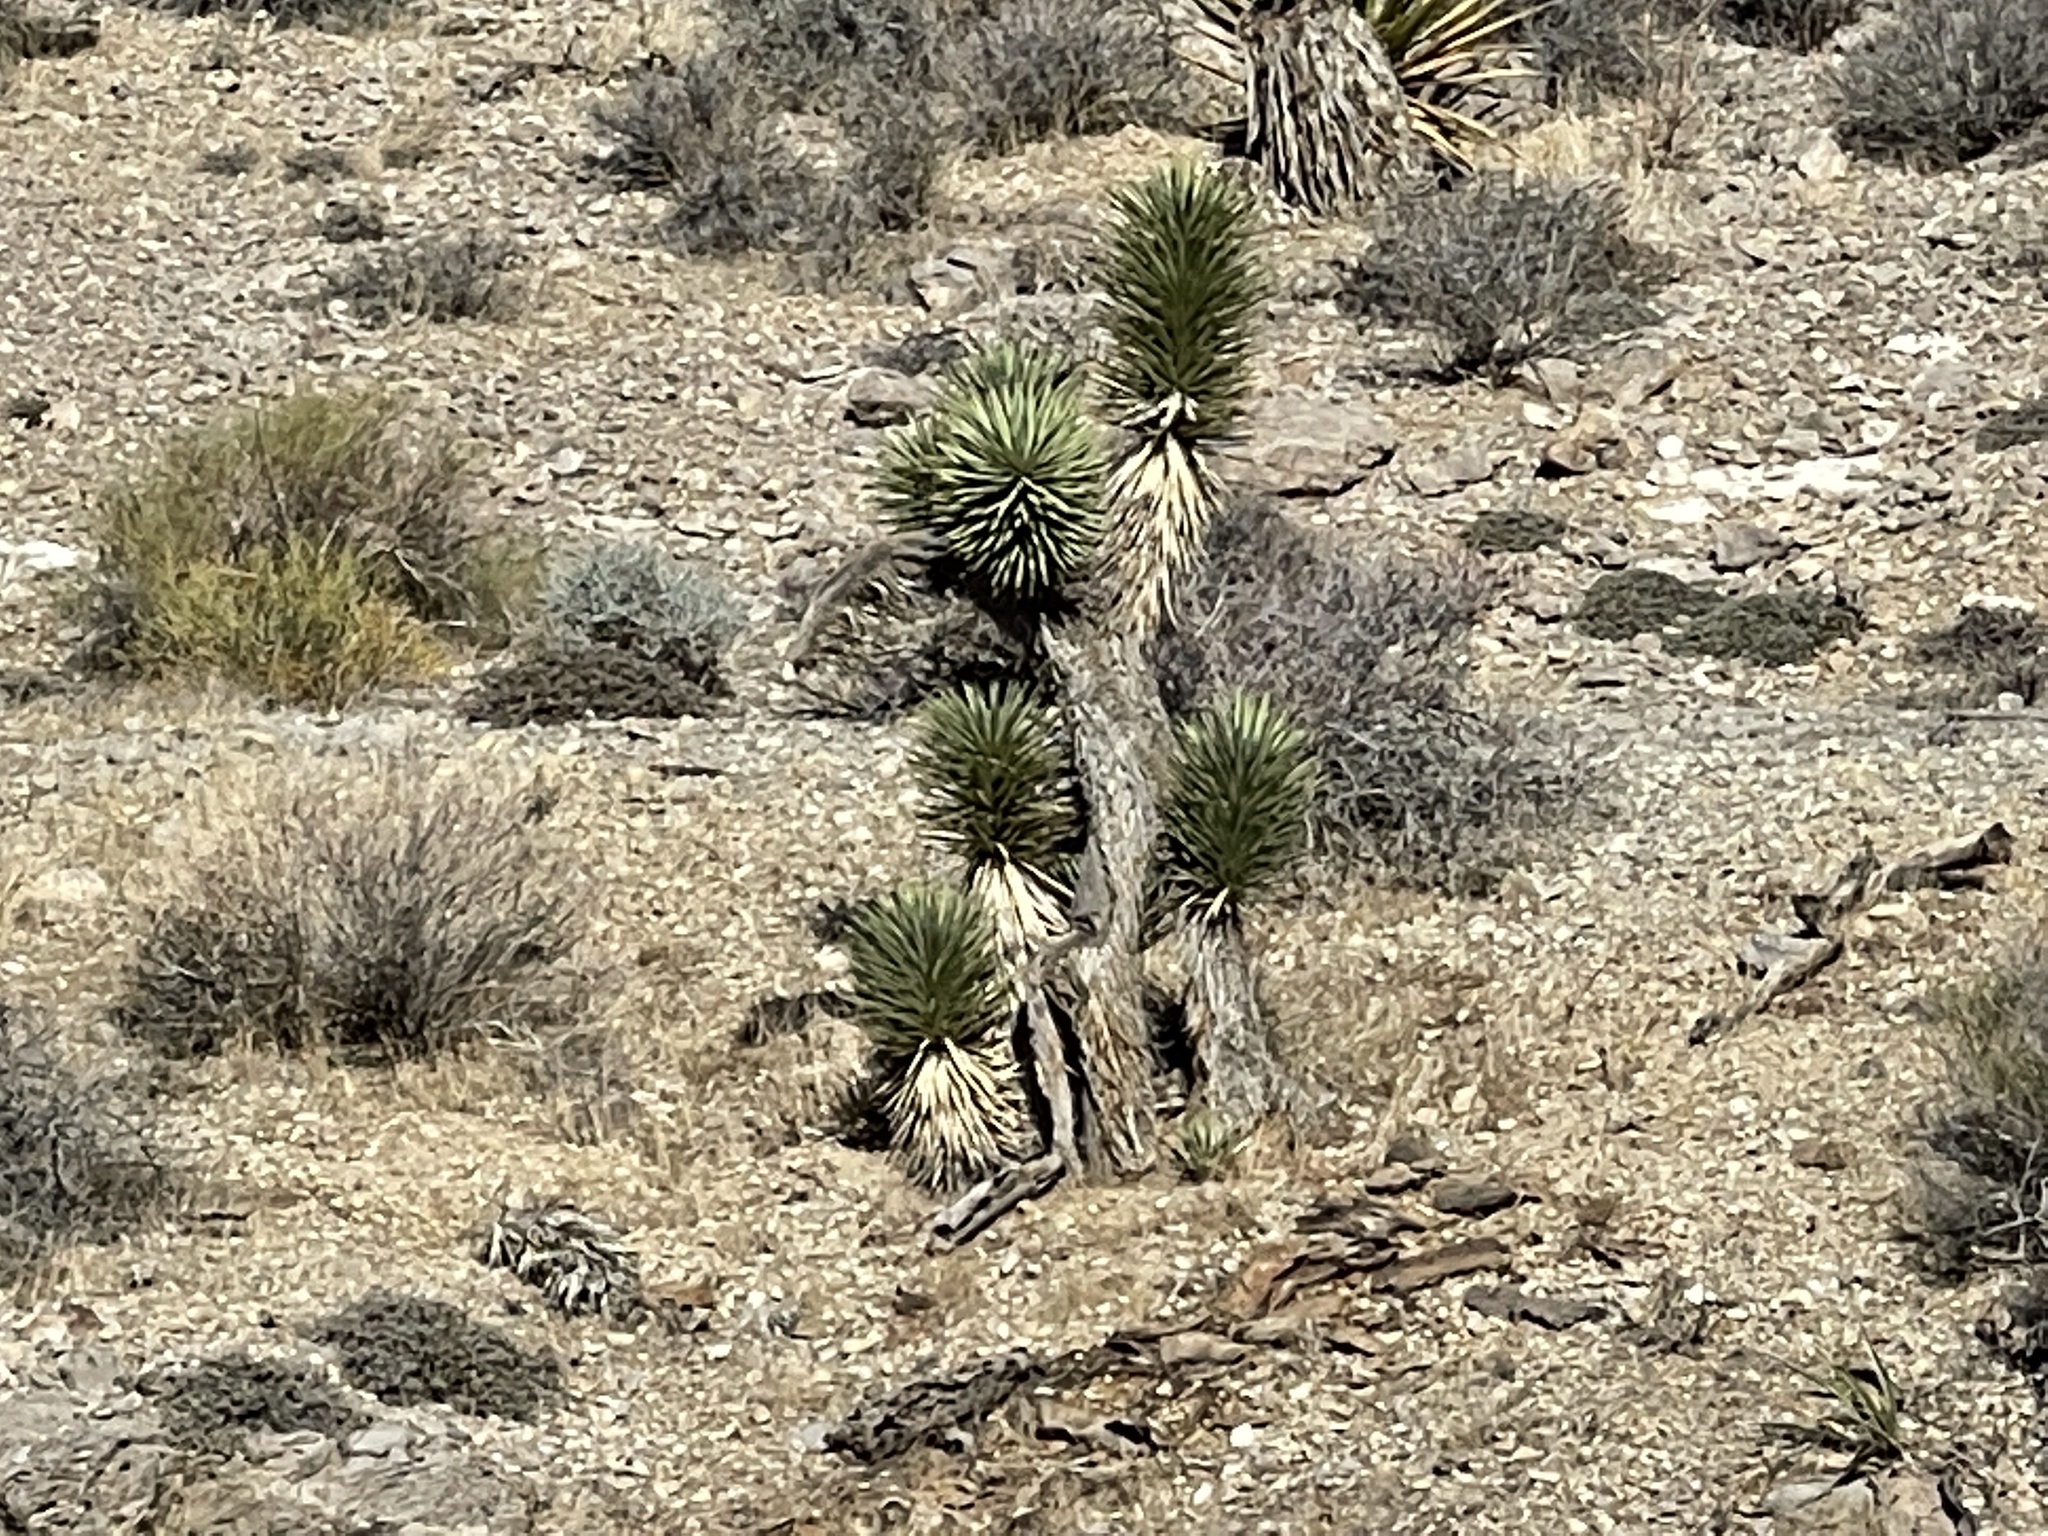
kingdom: Plantae
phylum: Tracheophyta
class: Liliopsida
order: Asparagales
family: Asparagaceae
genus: Yucca
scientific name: Yucca brevifolia
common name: Joshua tree
